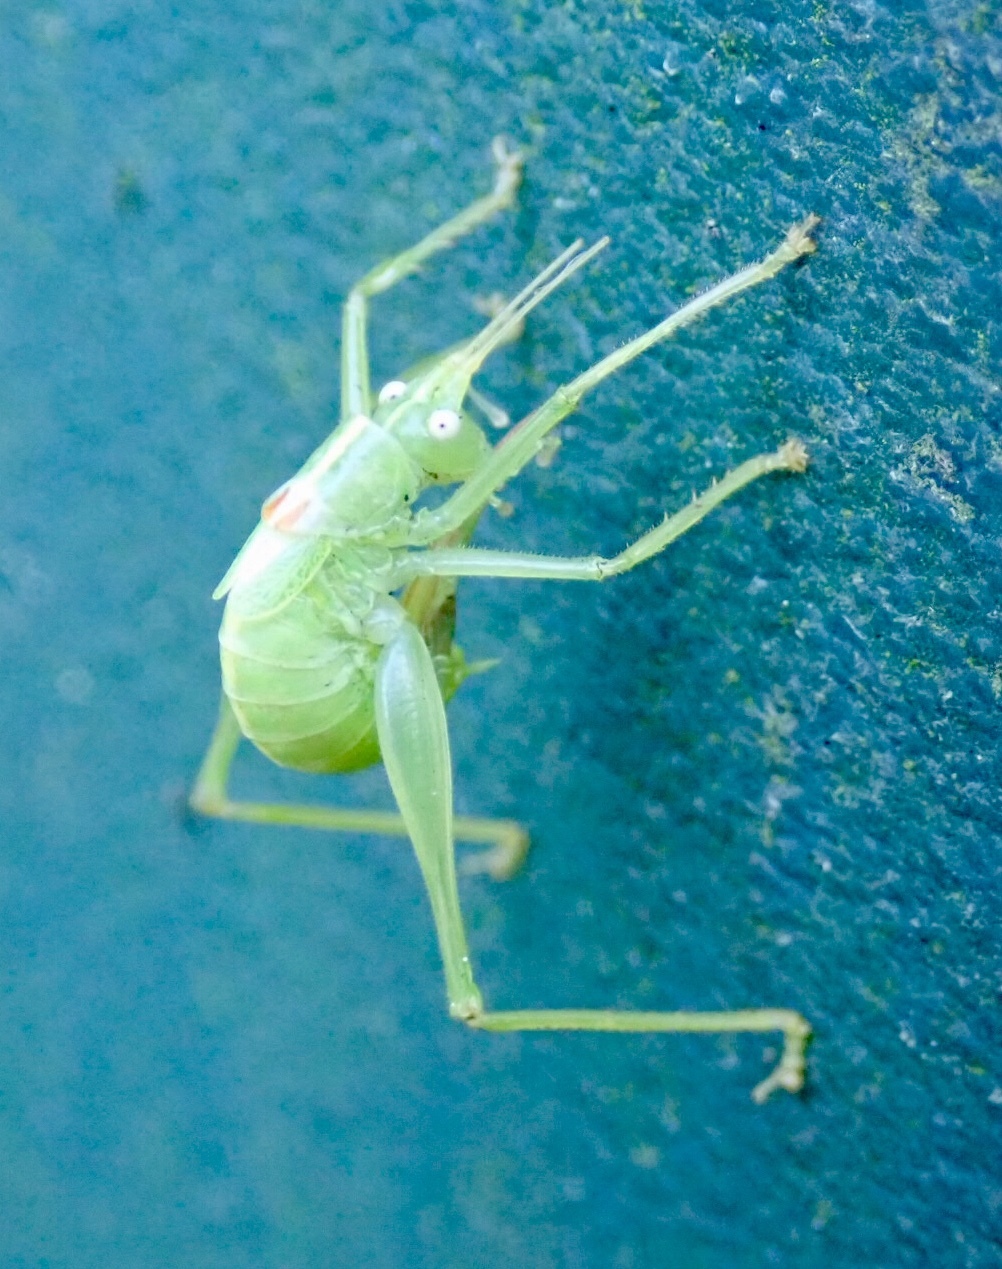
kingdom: Animalia
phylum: Arthropoda
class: Insecta
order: Orthoptera
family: Tettigoniidae
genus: Meconema
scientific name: Meconema meridionale
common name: Southern oak bush-cricket
